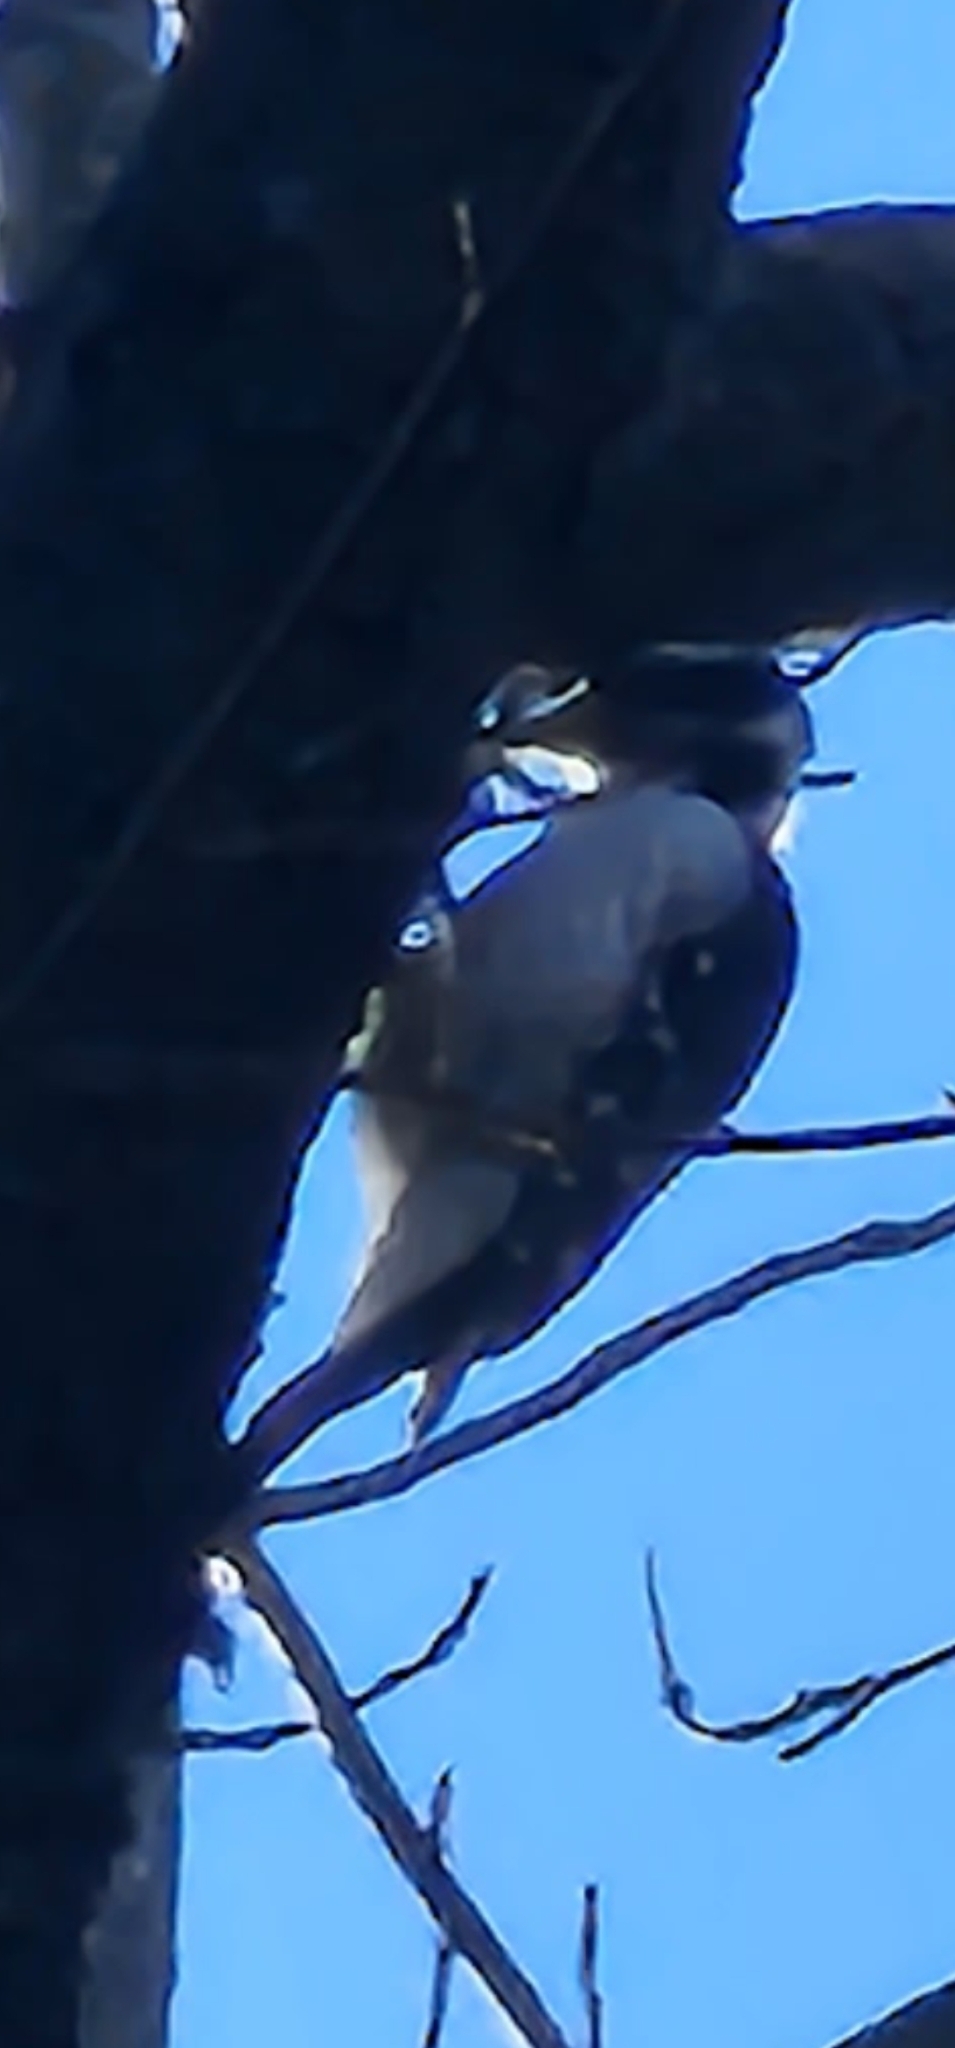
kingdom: Animalia
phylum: Chordata
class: Aves
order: Piciformes
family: Picidae
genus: Leuconotopicus
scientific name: Leuconotopicus villosus
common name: Hairy woodpecker
